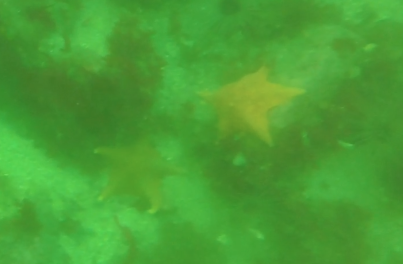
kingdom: Animalia
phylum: Echinodermata
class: Asteroidea
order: Valvatida
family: Asterinidae
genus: Patiria
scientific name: Patiria miniata
